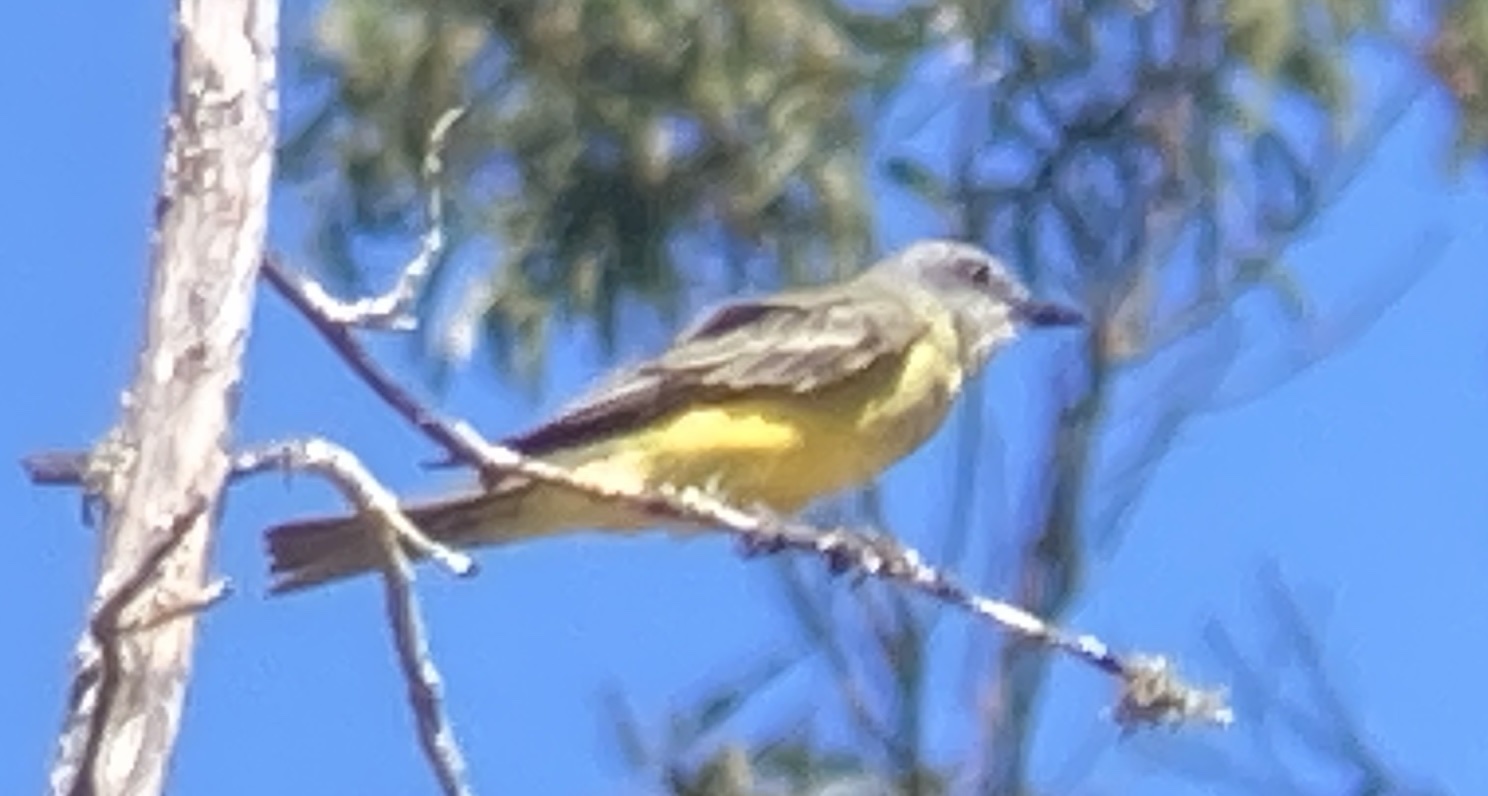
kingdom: Animalia
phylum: Chordata
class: Aves
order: Passeriformes
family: Tyrannidae
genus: Tyrannus
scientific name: Tyrannus melancholicus
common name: Tropical kingbird
